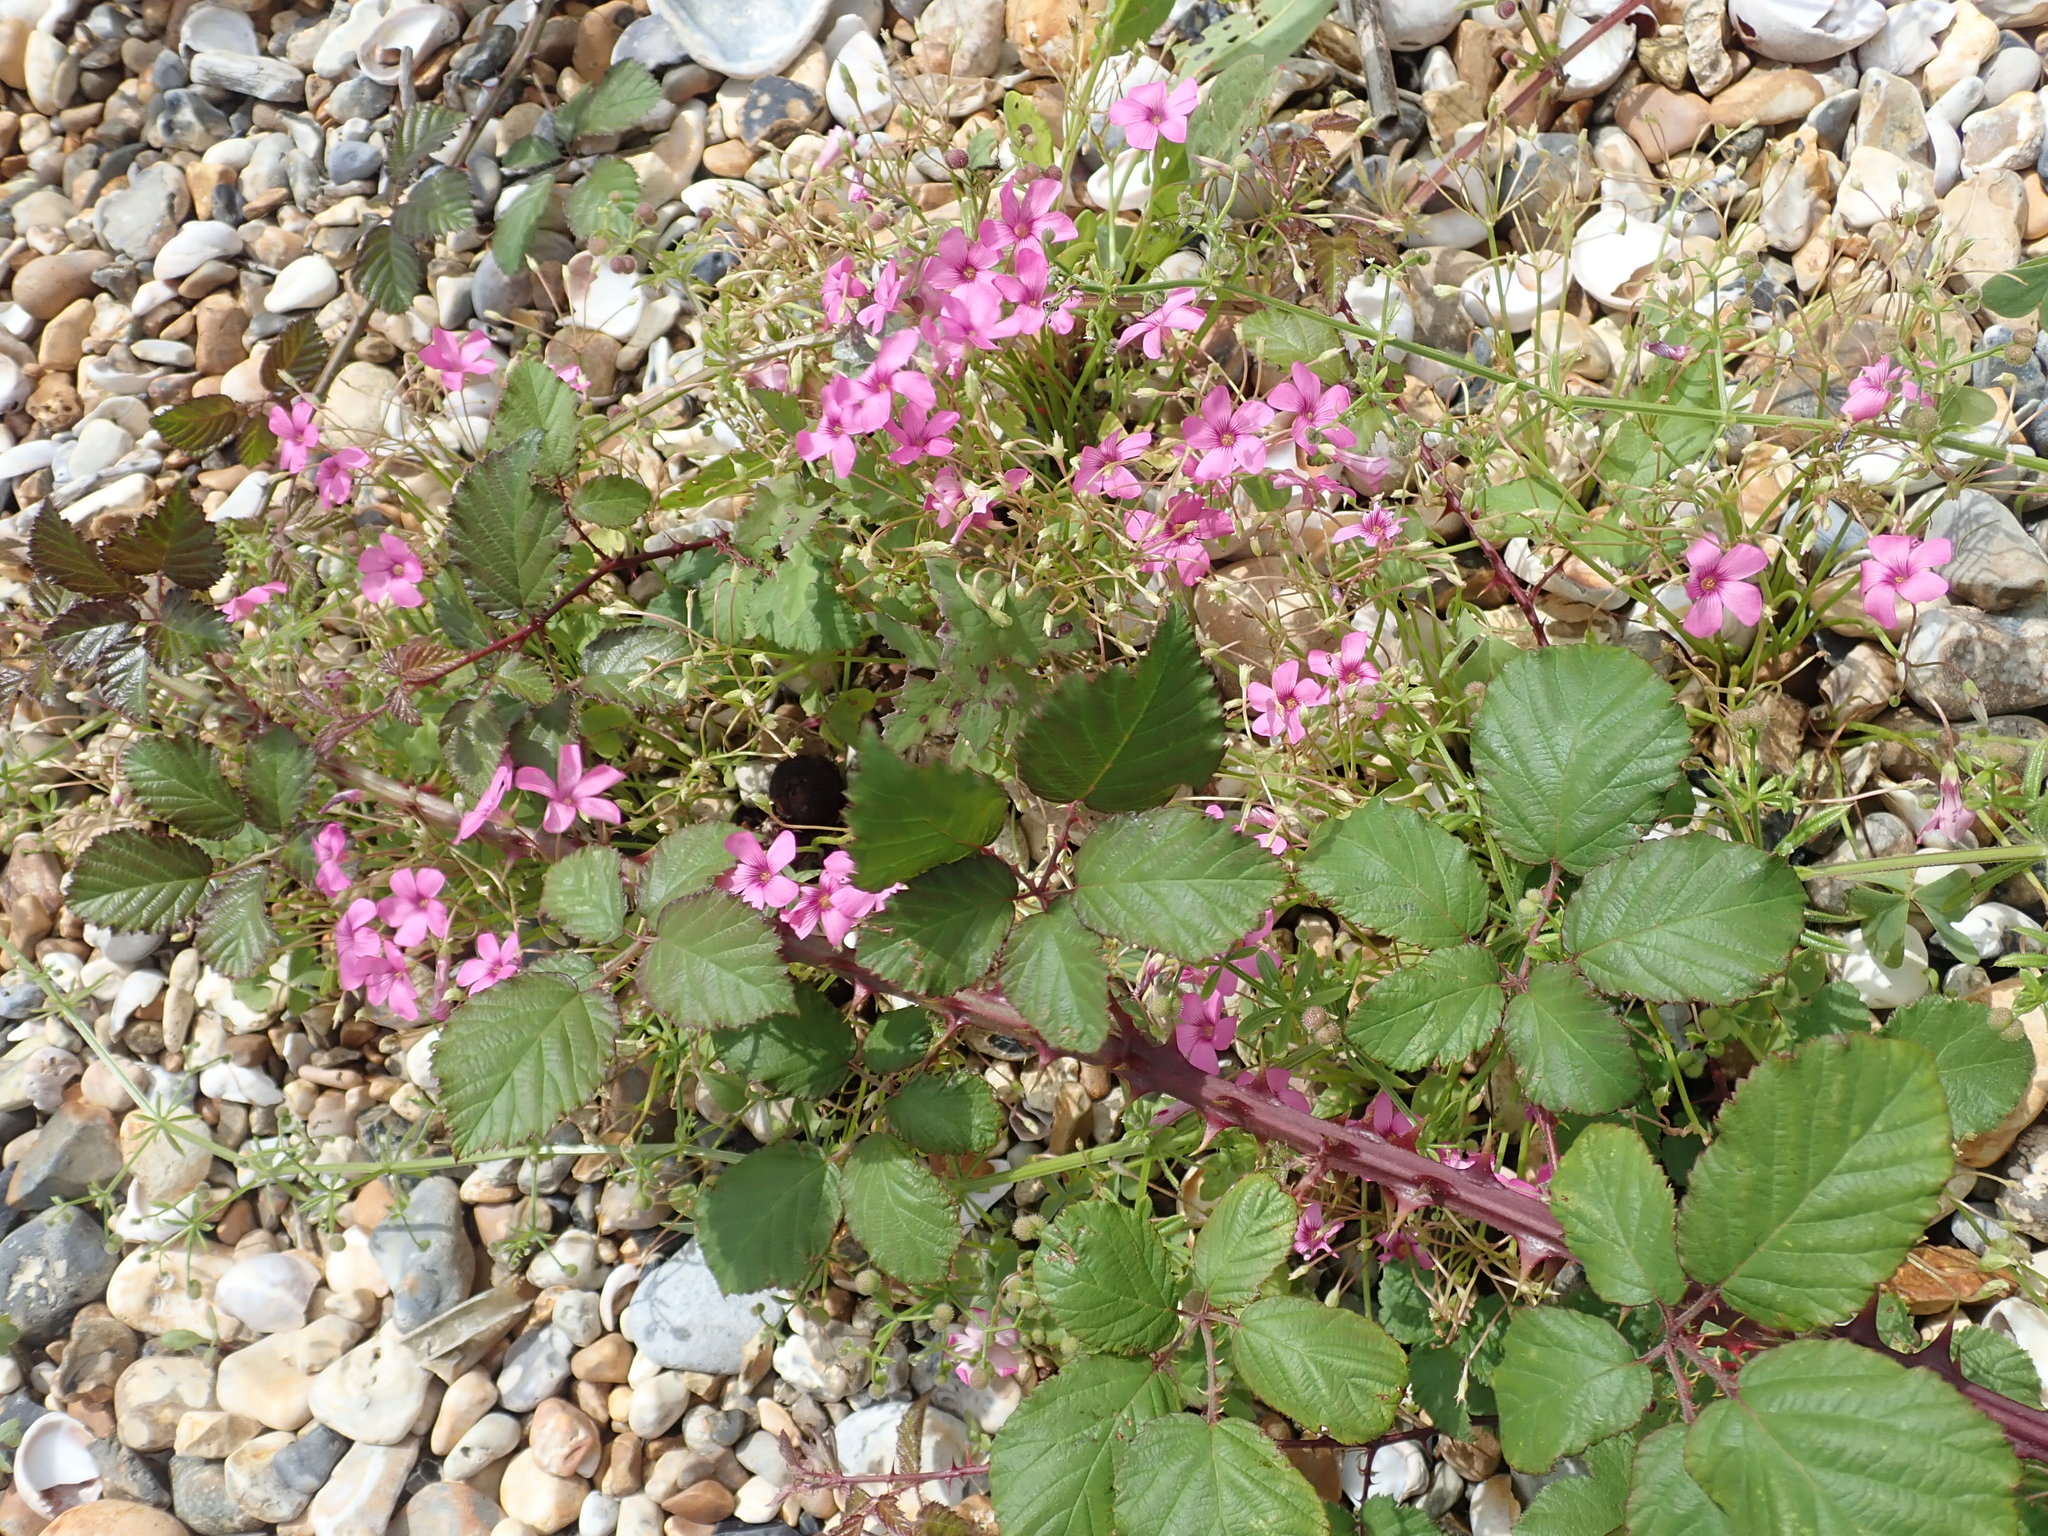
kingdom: Plantae
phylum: Tracheophyta
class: Magnoliopsida
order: Oxalidales
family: Oxalidaceae
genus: Oxalis
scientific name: Oxalis articulata
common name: Pink-sorrel
